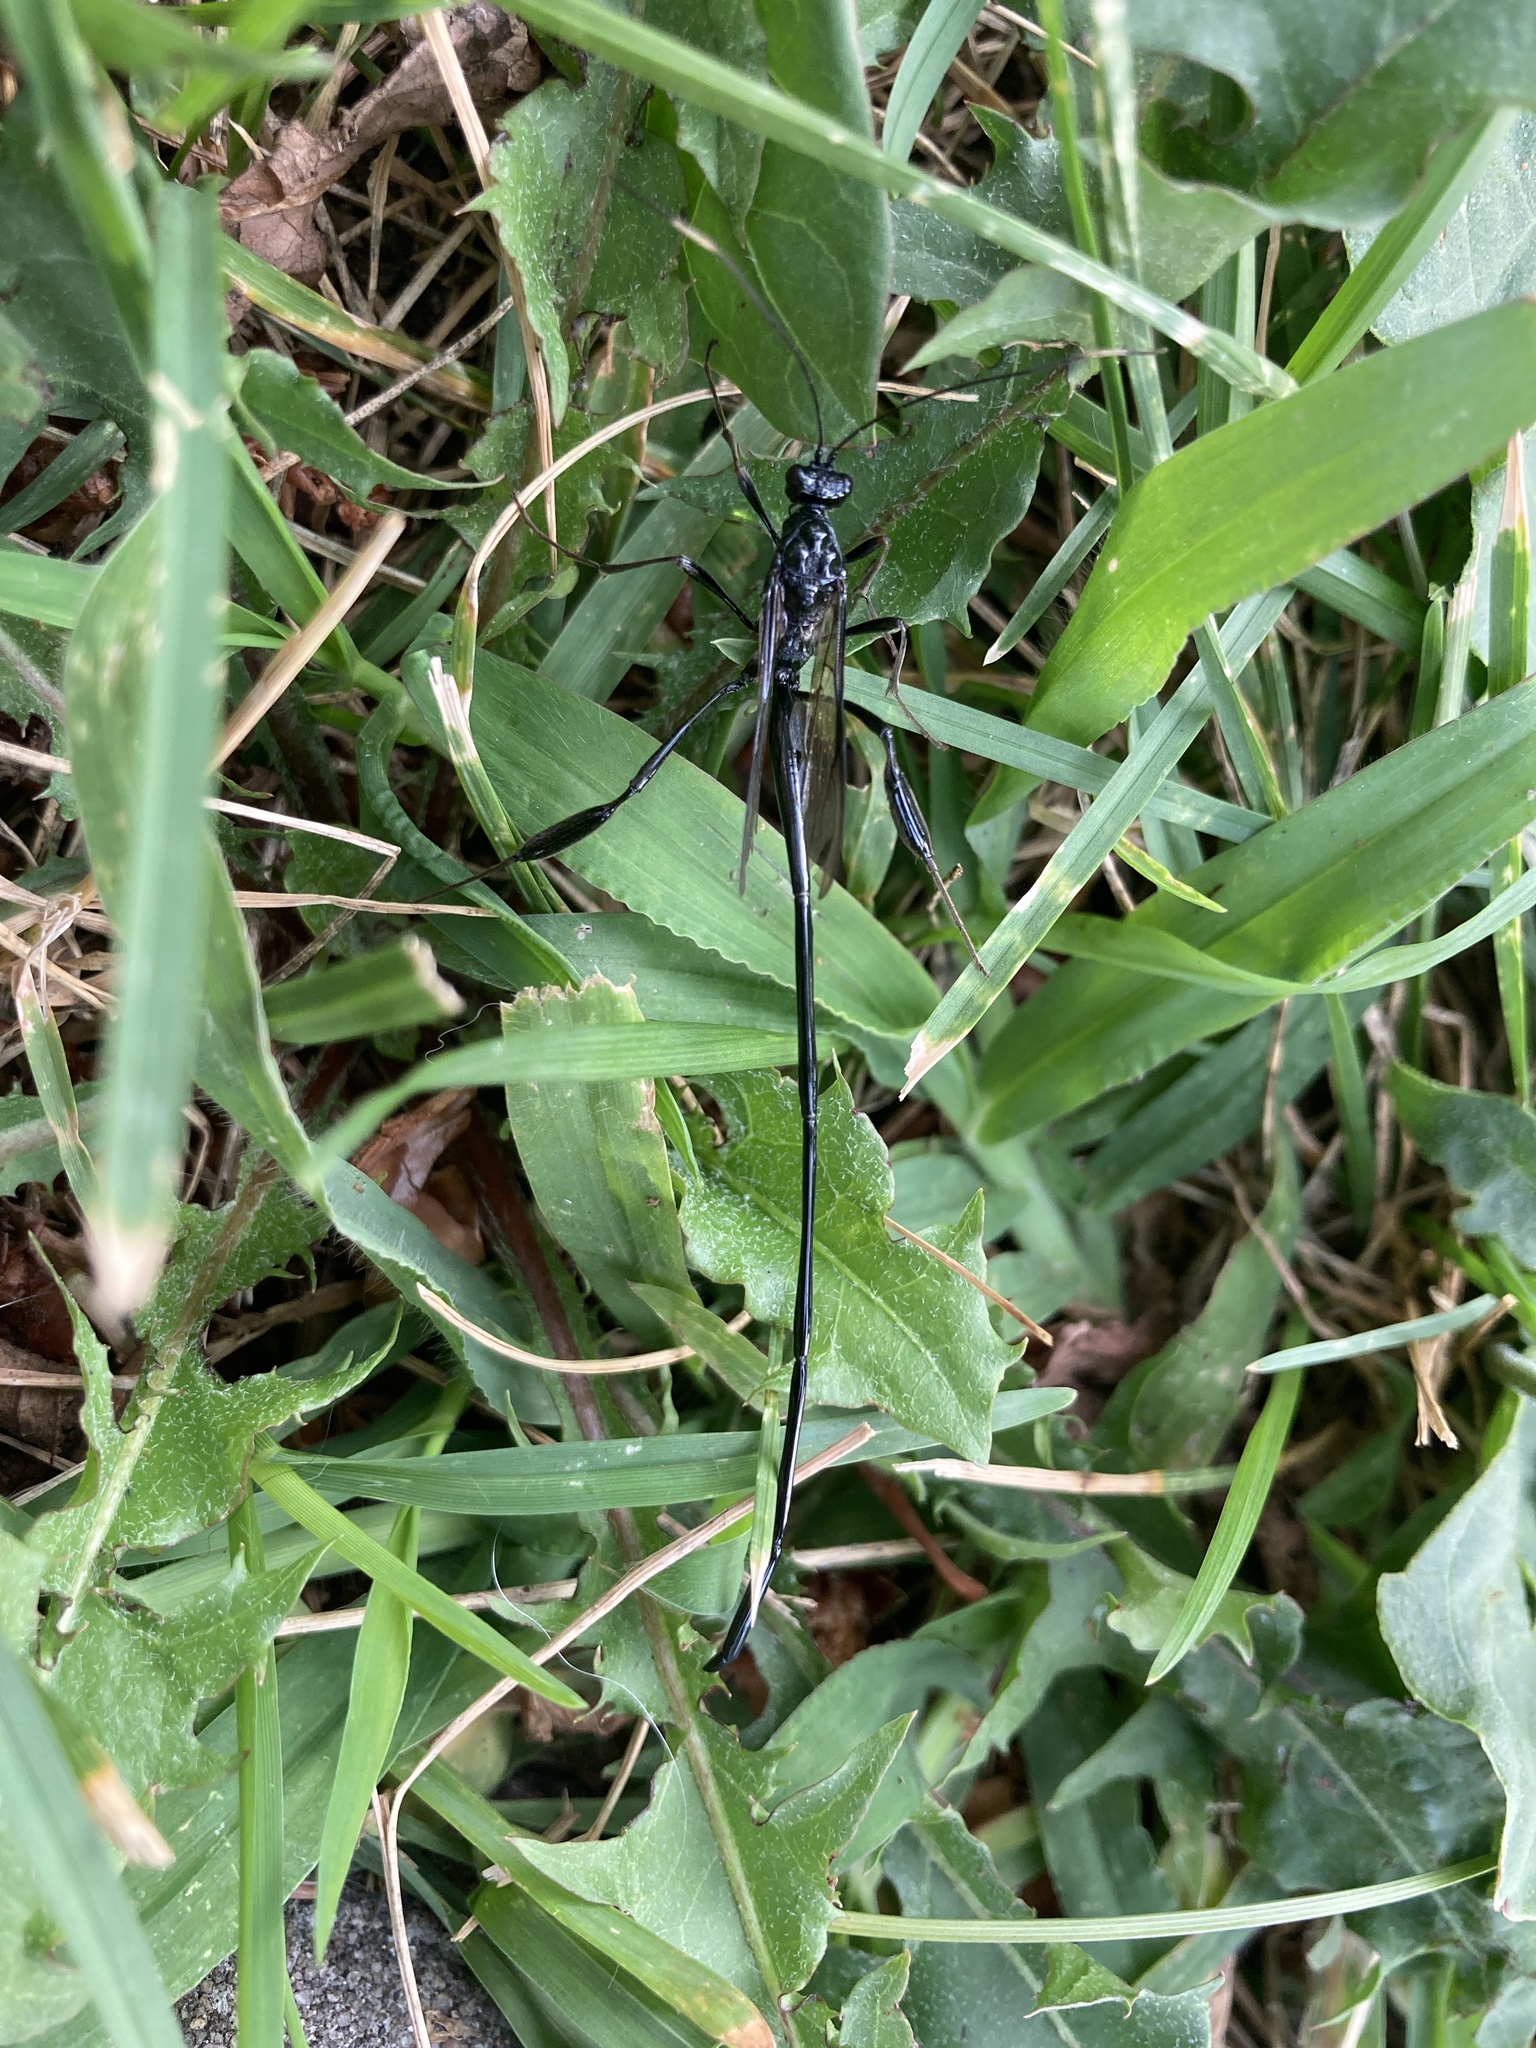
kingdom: Animalia
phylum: Arthropoda
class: Insecta
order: Hymenoptera
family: Pelecinidae
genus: Pelecinus
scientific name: Pelecinus polyturator
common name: American pelecinid wasp
